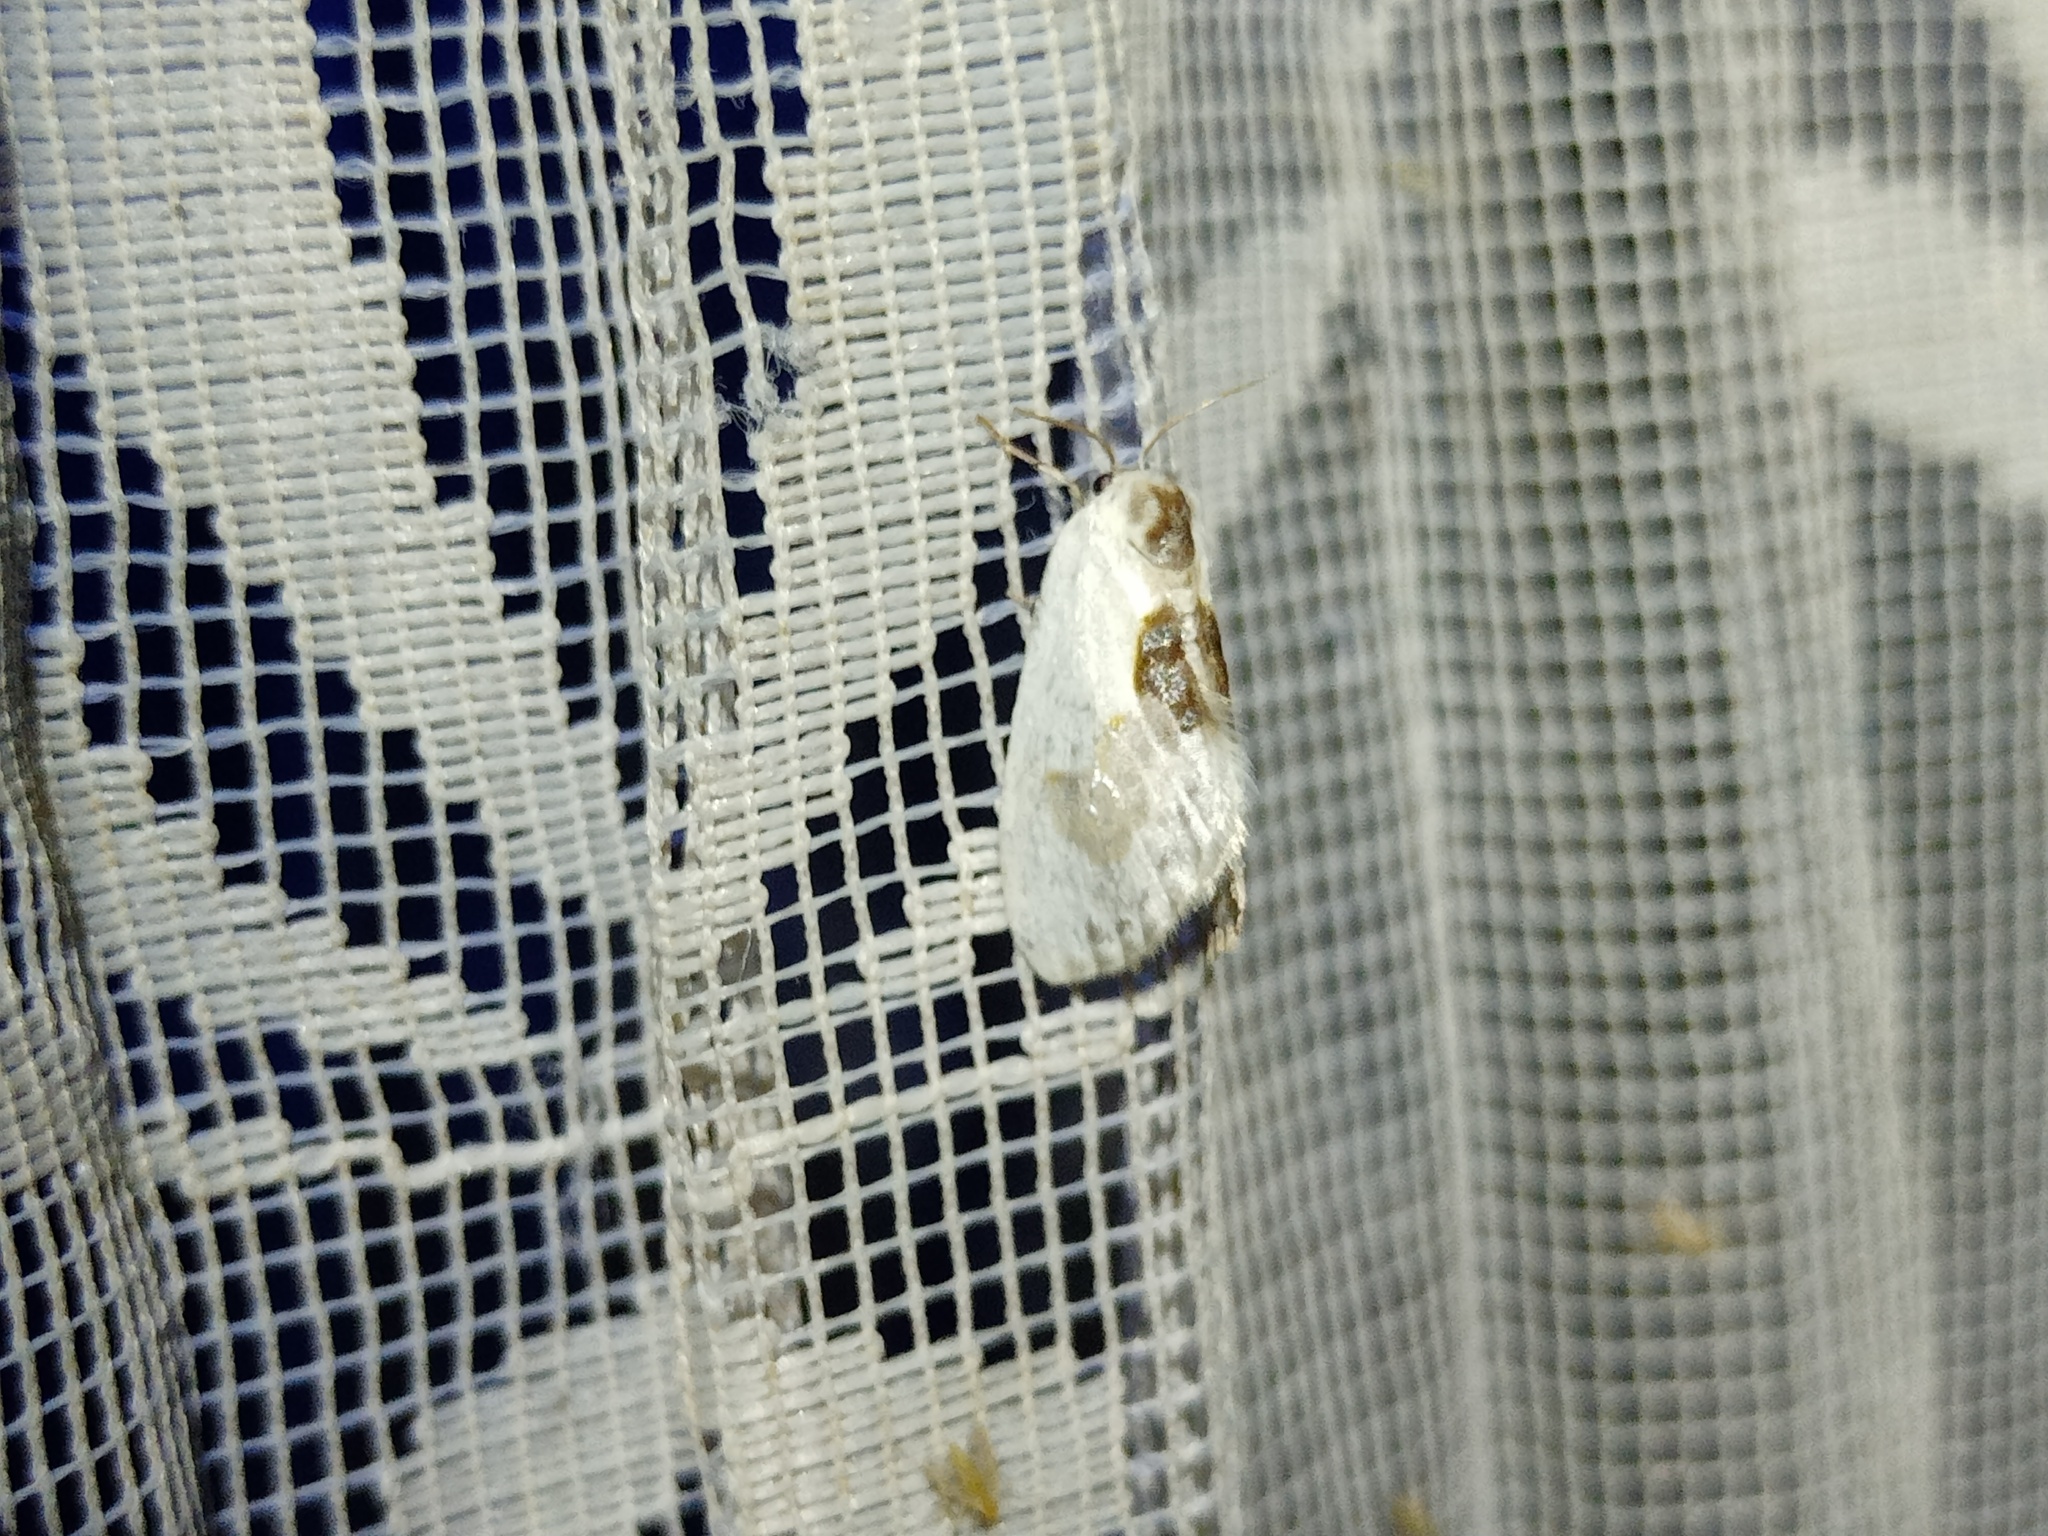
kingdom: Animalia
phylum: Arthropoda
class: Insecta
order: Lepidoptera
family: Drepanidae
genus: Cilix
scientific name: Cilix glaucata
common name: Chinese character
